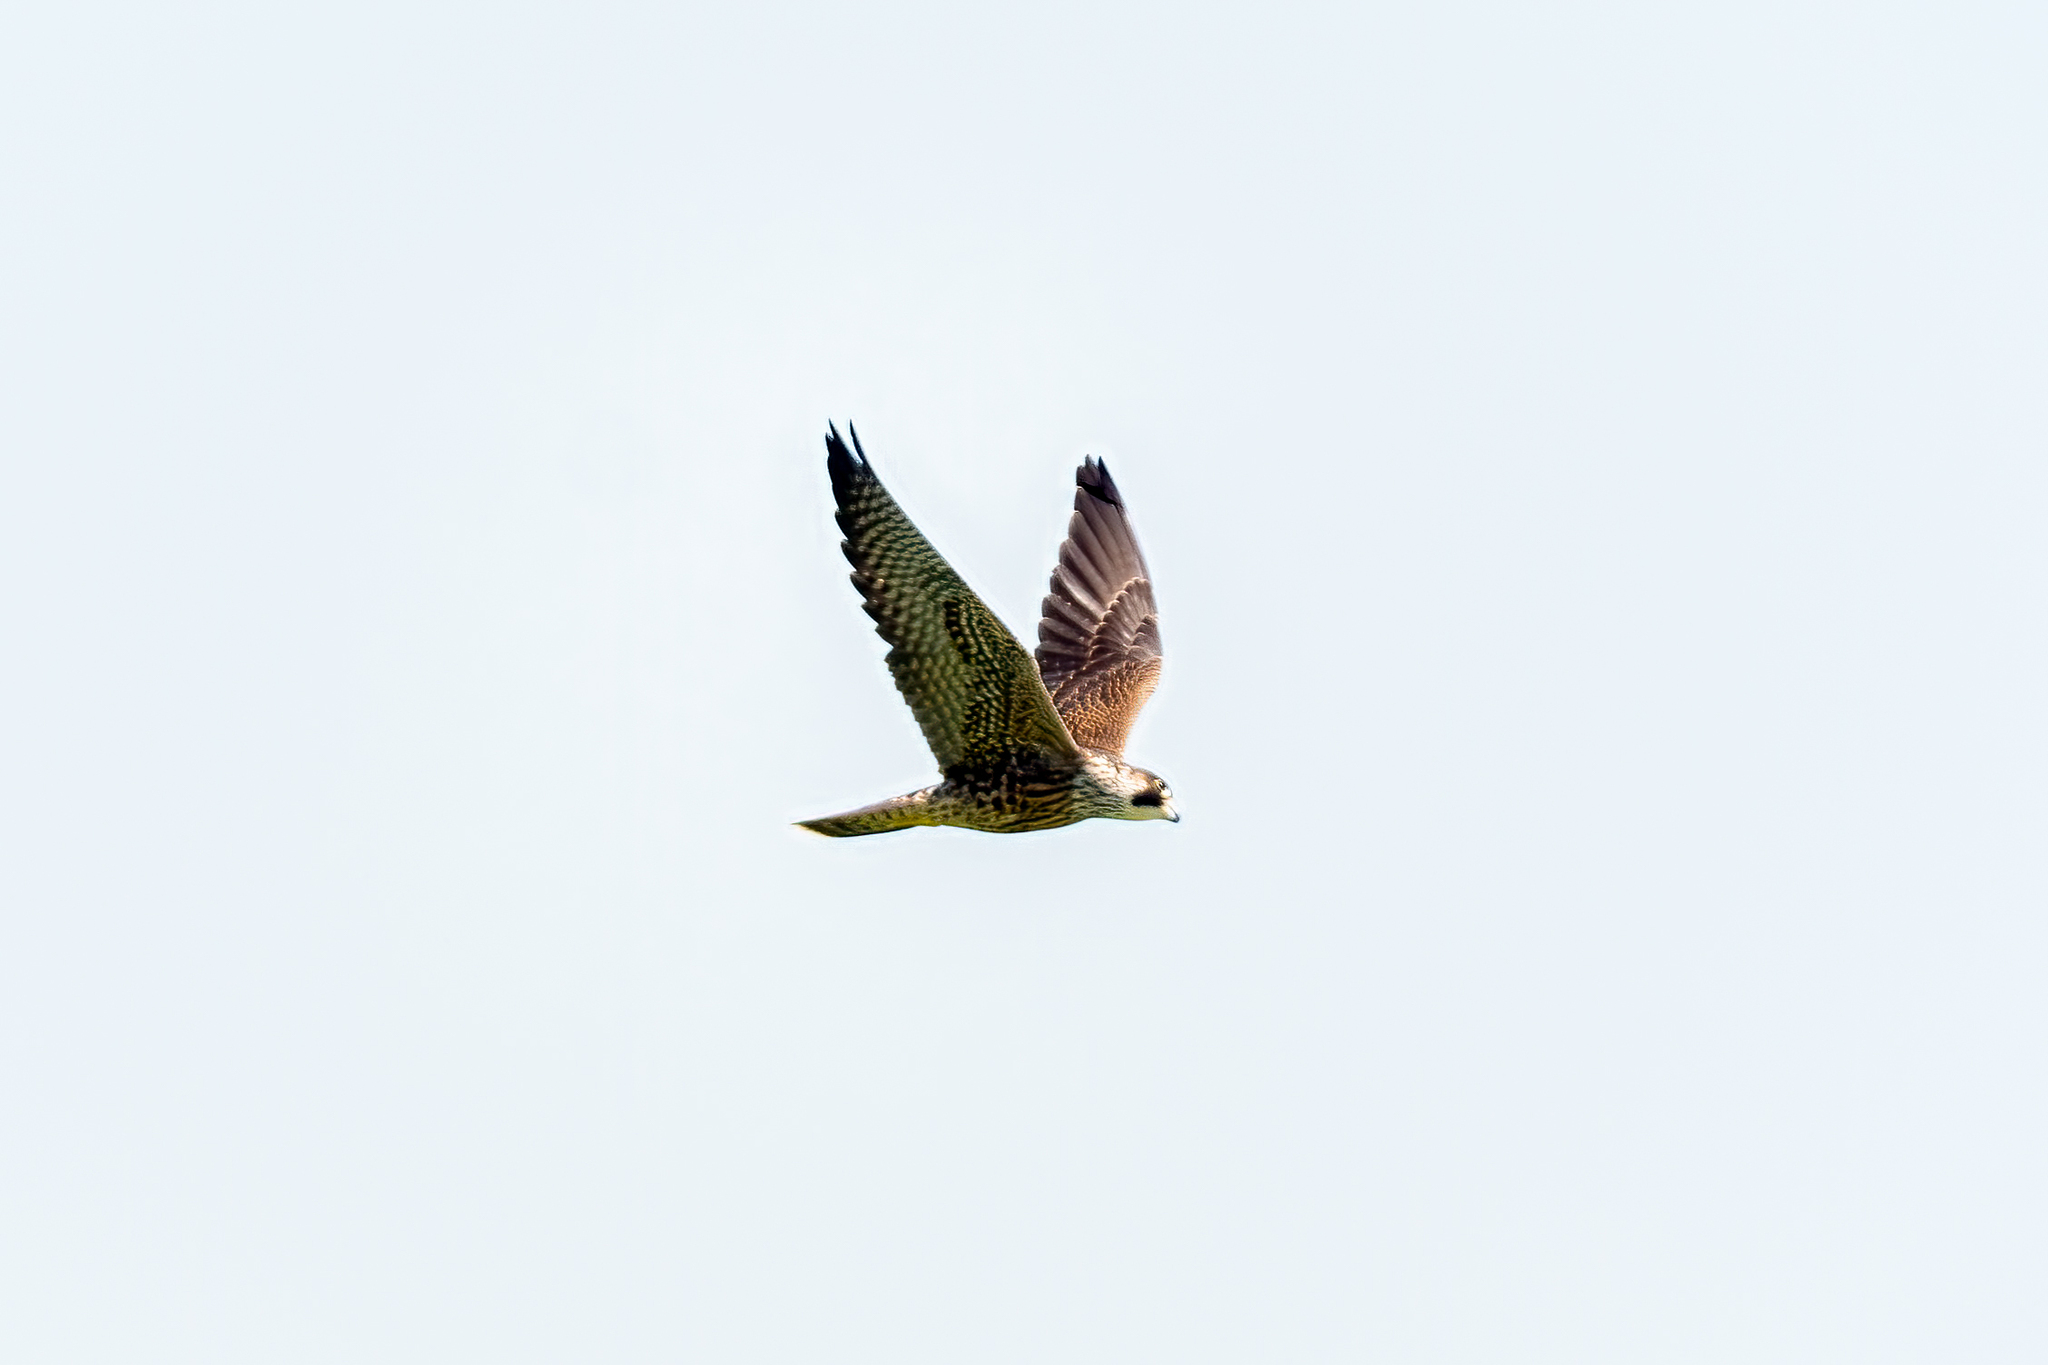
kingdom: Animalia
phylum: Chordata
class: Aves
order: Falconiformes
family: Falconidae
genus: Falco
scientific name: Falco peregrinus
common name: Peregrine falcon
